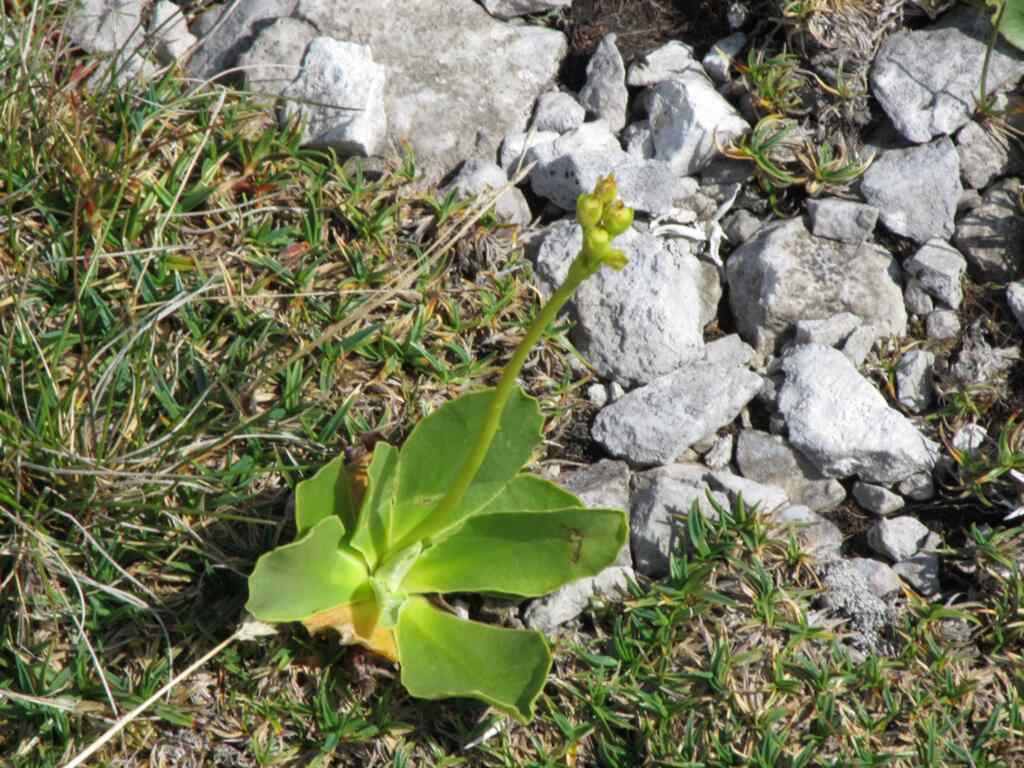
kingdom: Plantae
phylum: Tracheophyta
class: Magnoliopsida
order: Ericales
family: Primulaceae
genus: Primula
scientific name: Primula auricula
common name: Auricula
